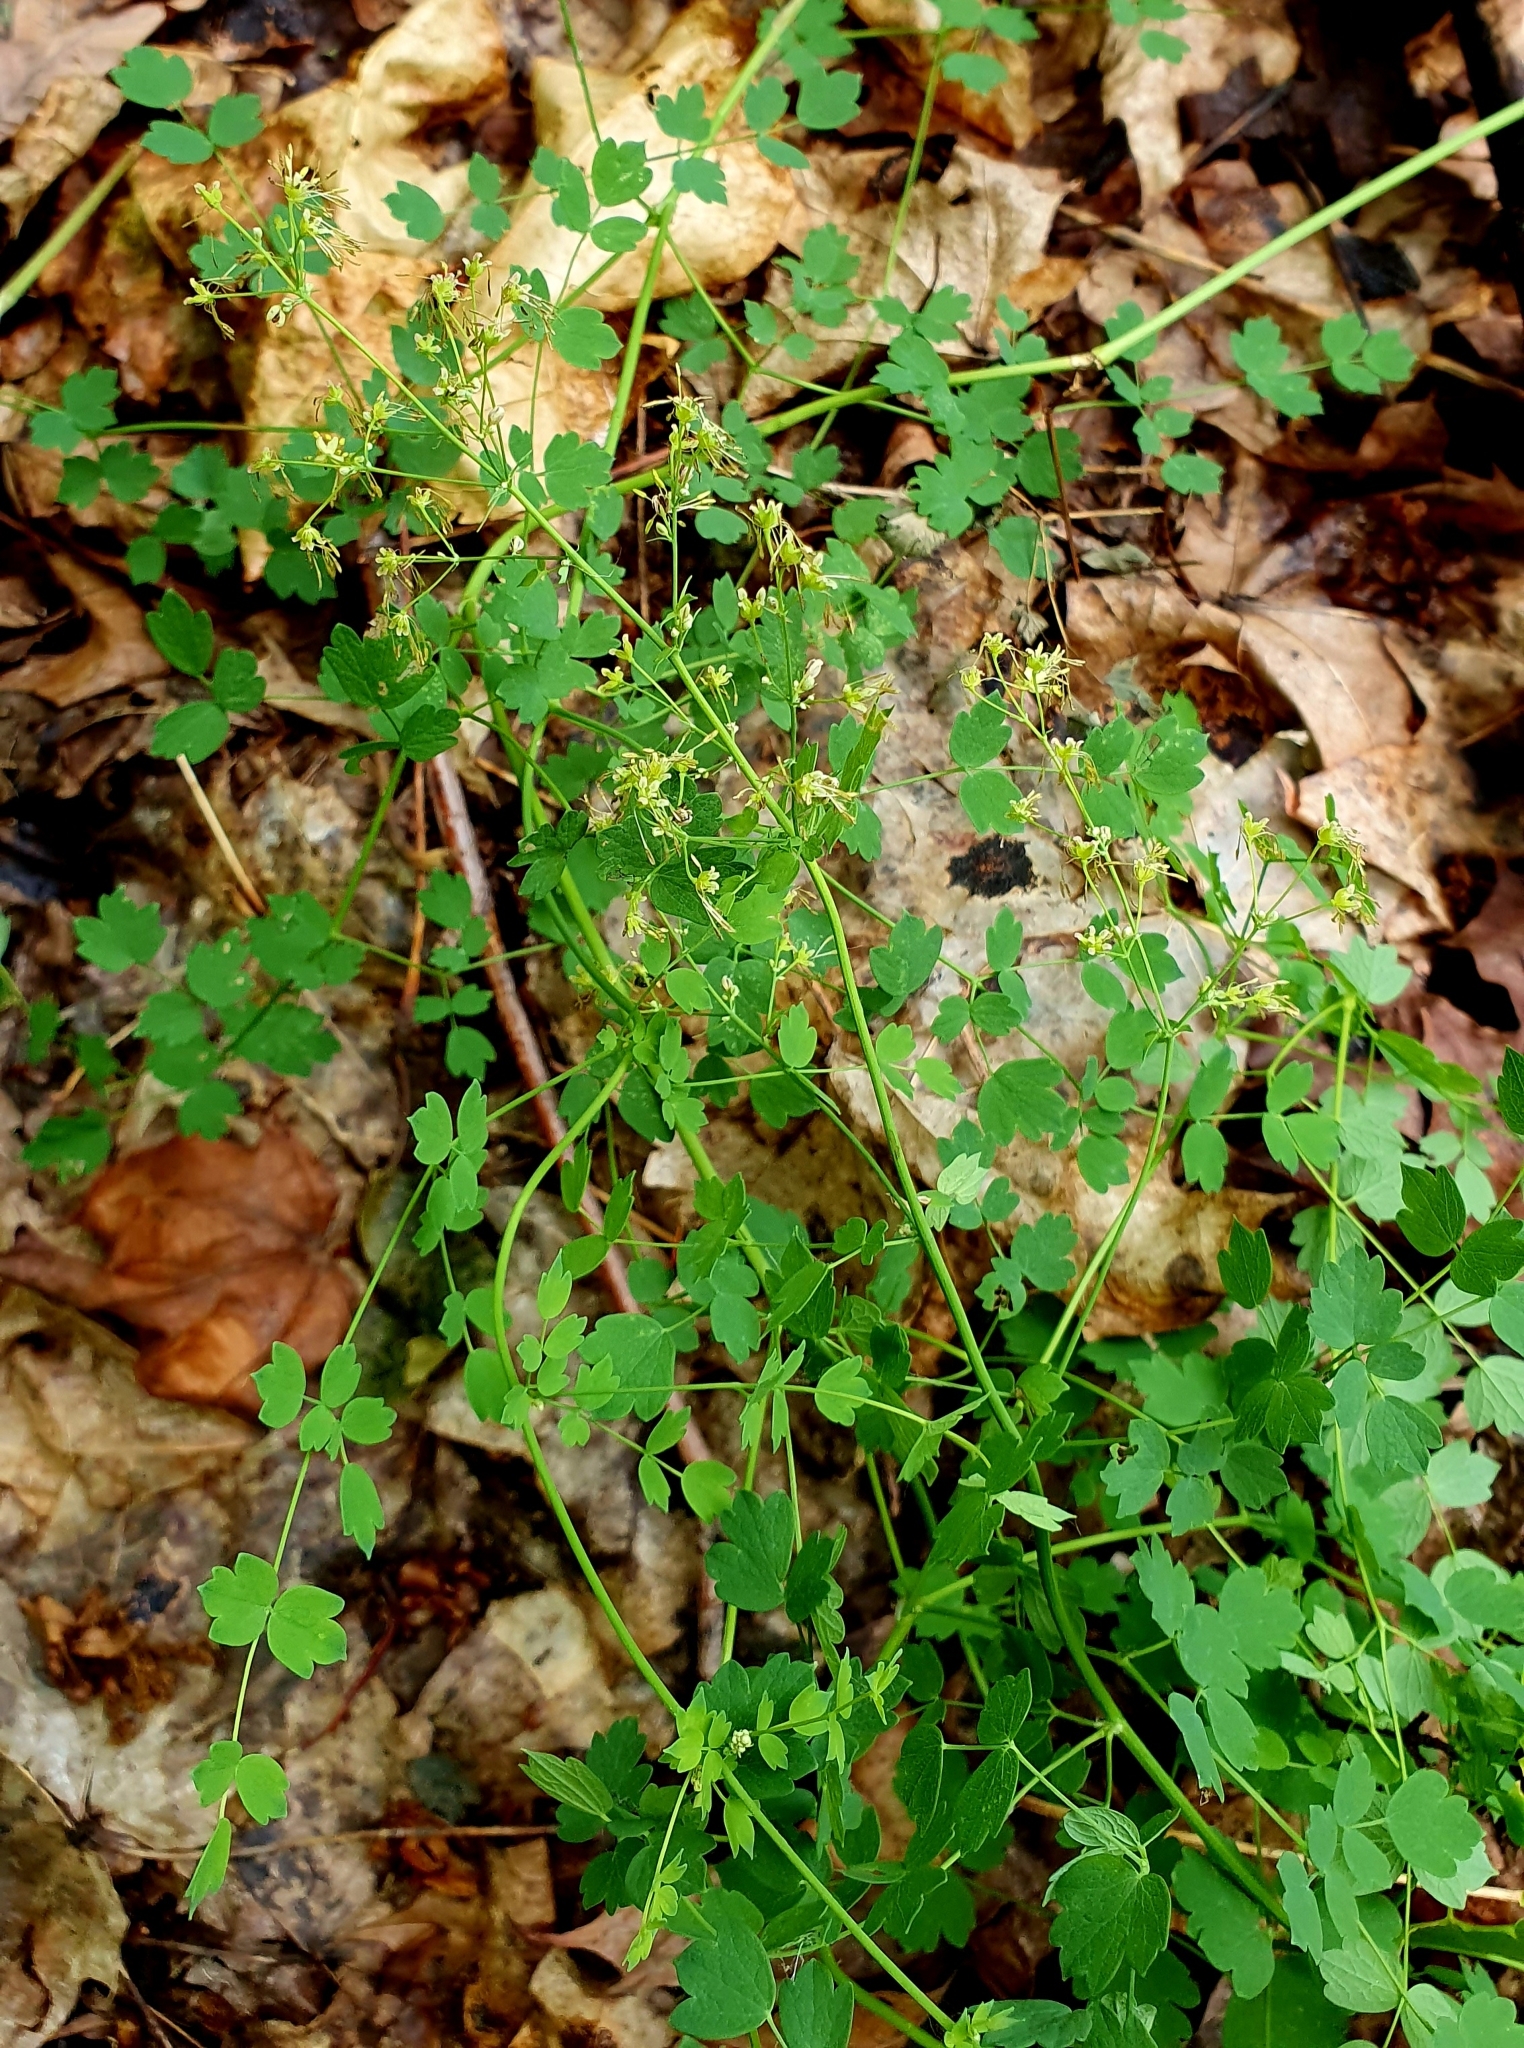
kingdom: Plantae
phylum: Tracheophyta
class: Magnoliopsida
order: Ranunculales
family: Ranunculaceae
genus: Thalictrum
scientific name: Thalictrum minus
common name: Lesser meadow-rue
